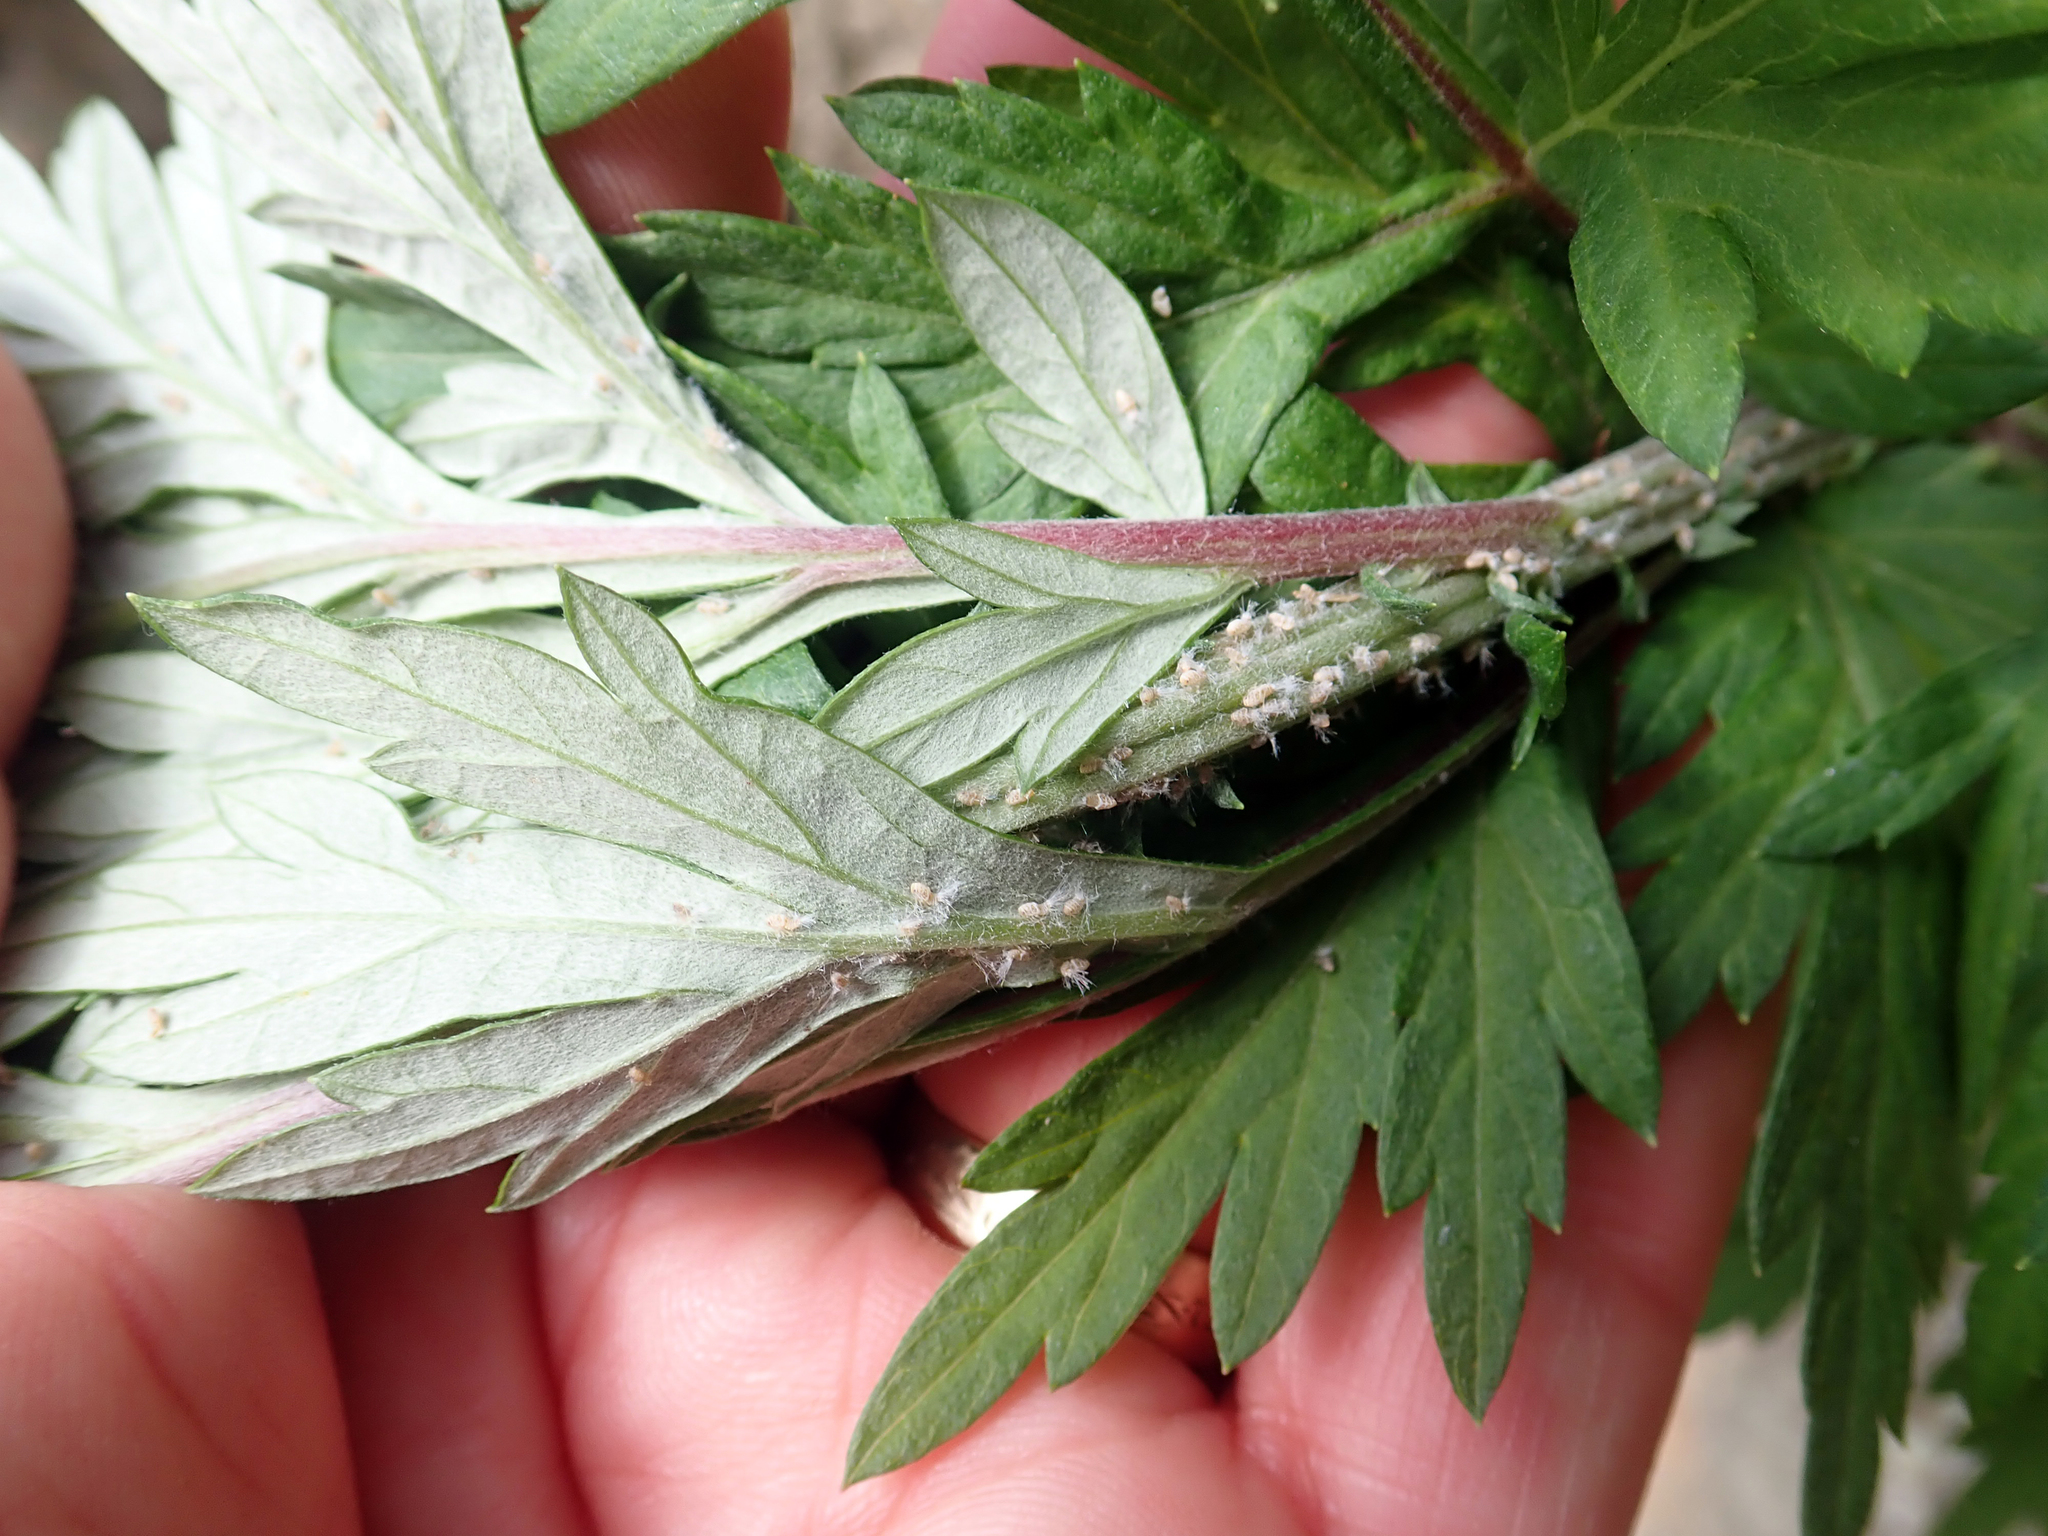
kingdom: Plantae
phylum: Tracheophyta
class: Magnoliopsida
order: Asterales
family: Asteraceae
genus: Artemisia
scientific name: Artemisia verlotiorum
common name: Chinese mugwort
